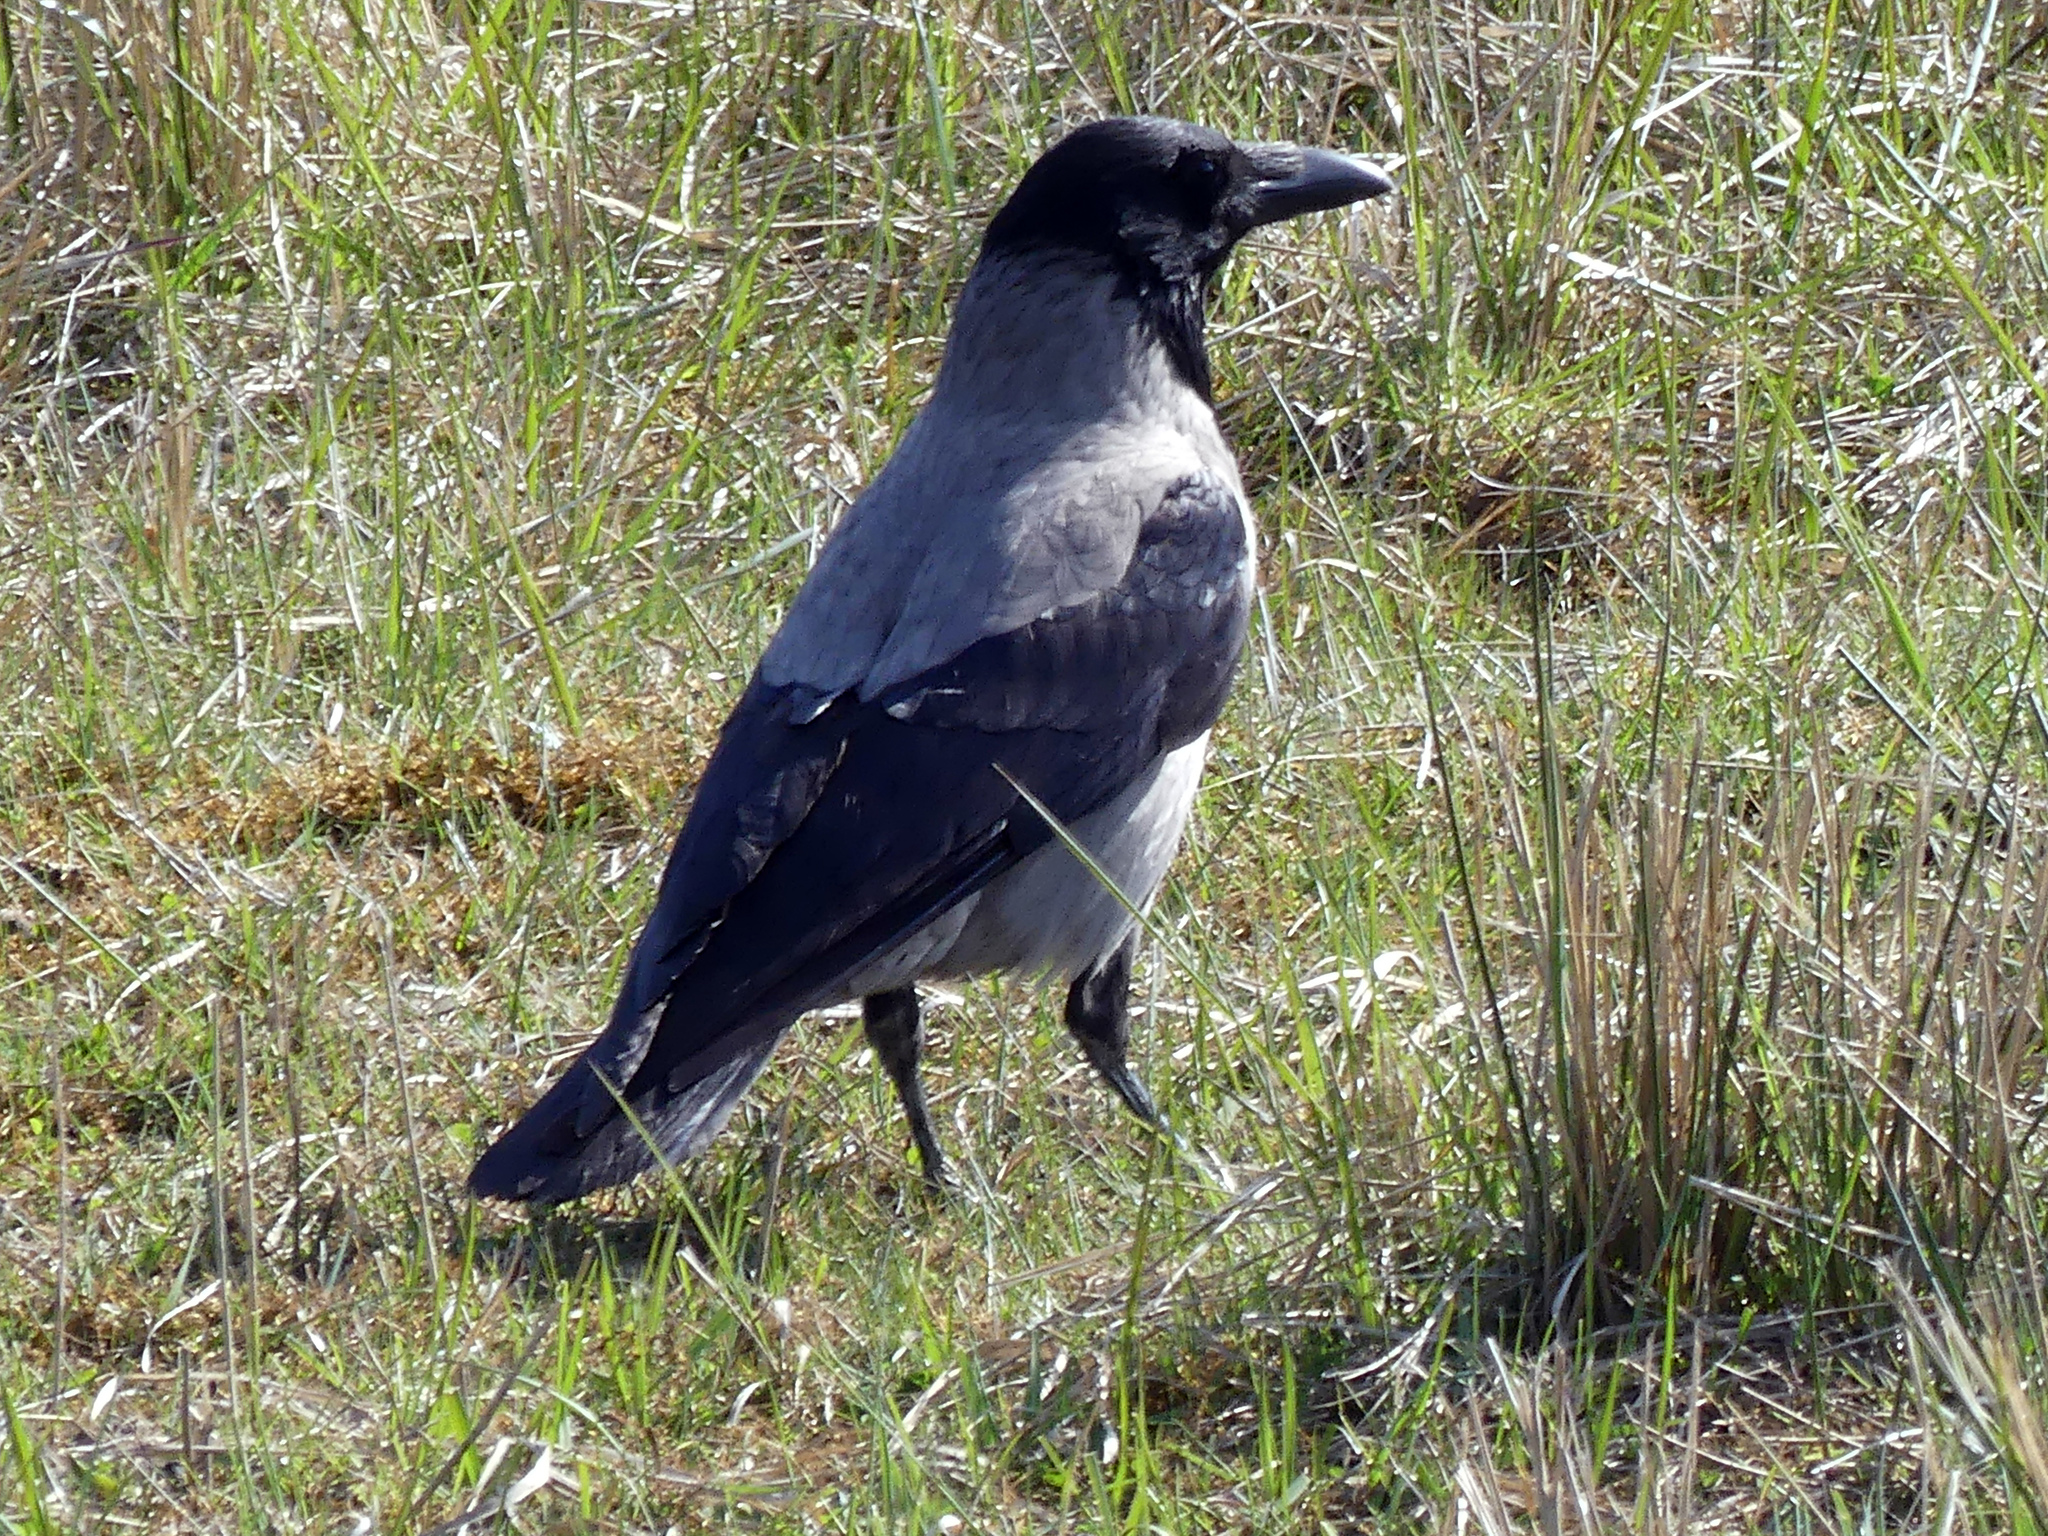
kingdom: Animalia
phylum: Chordata
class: Aves
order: Passeriformes
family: Corvidae
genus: Corvus
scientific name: Corvus cornix
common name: Hooded crow
